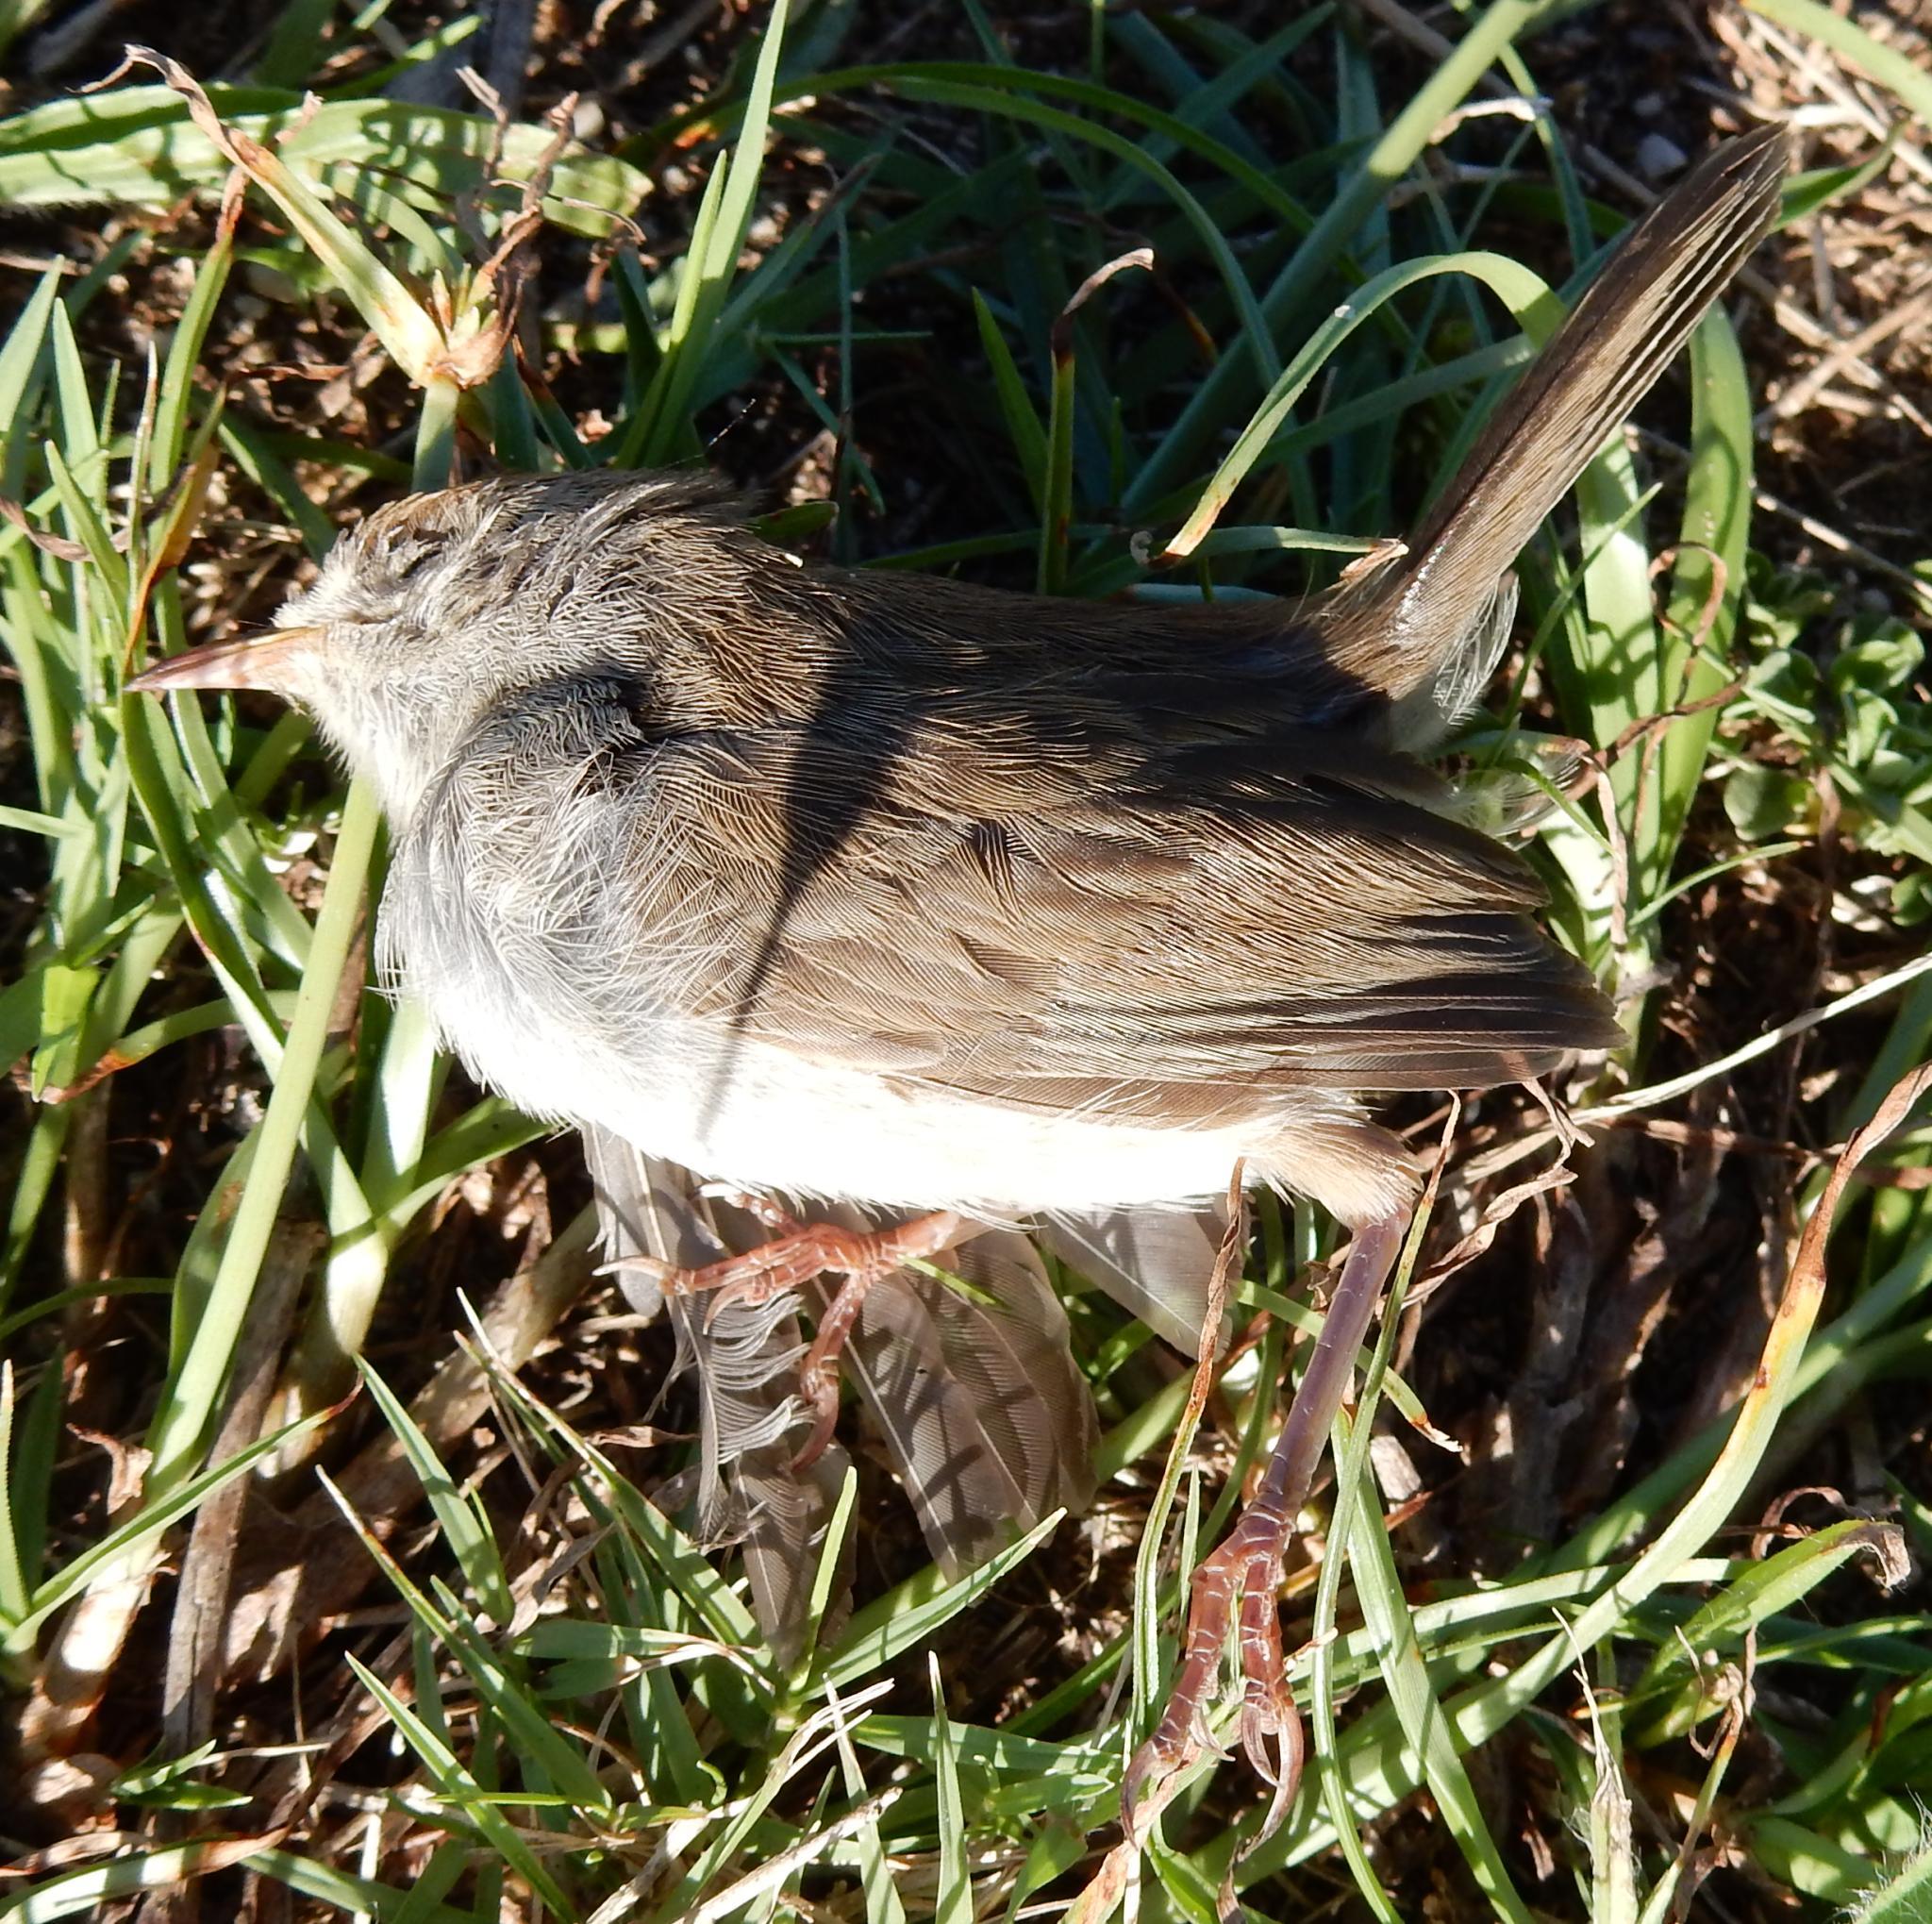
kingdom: Animalia
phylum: Chordata
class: Aves
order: Passeriformes
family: Cisticolidae
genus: Cisticola
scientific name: Cisticola fulvicapilla
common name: Neddicky
